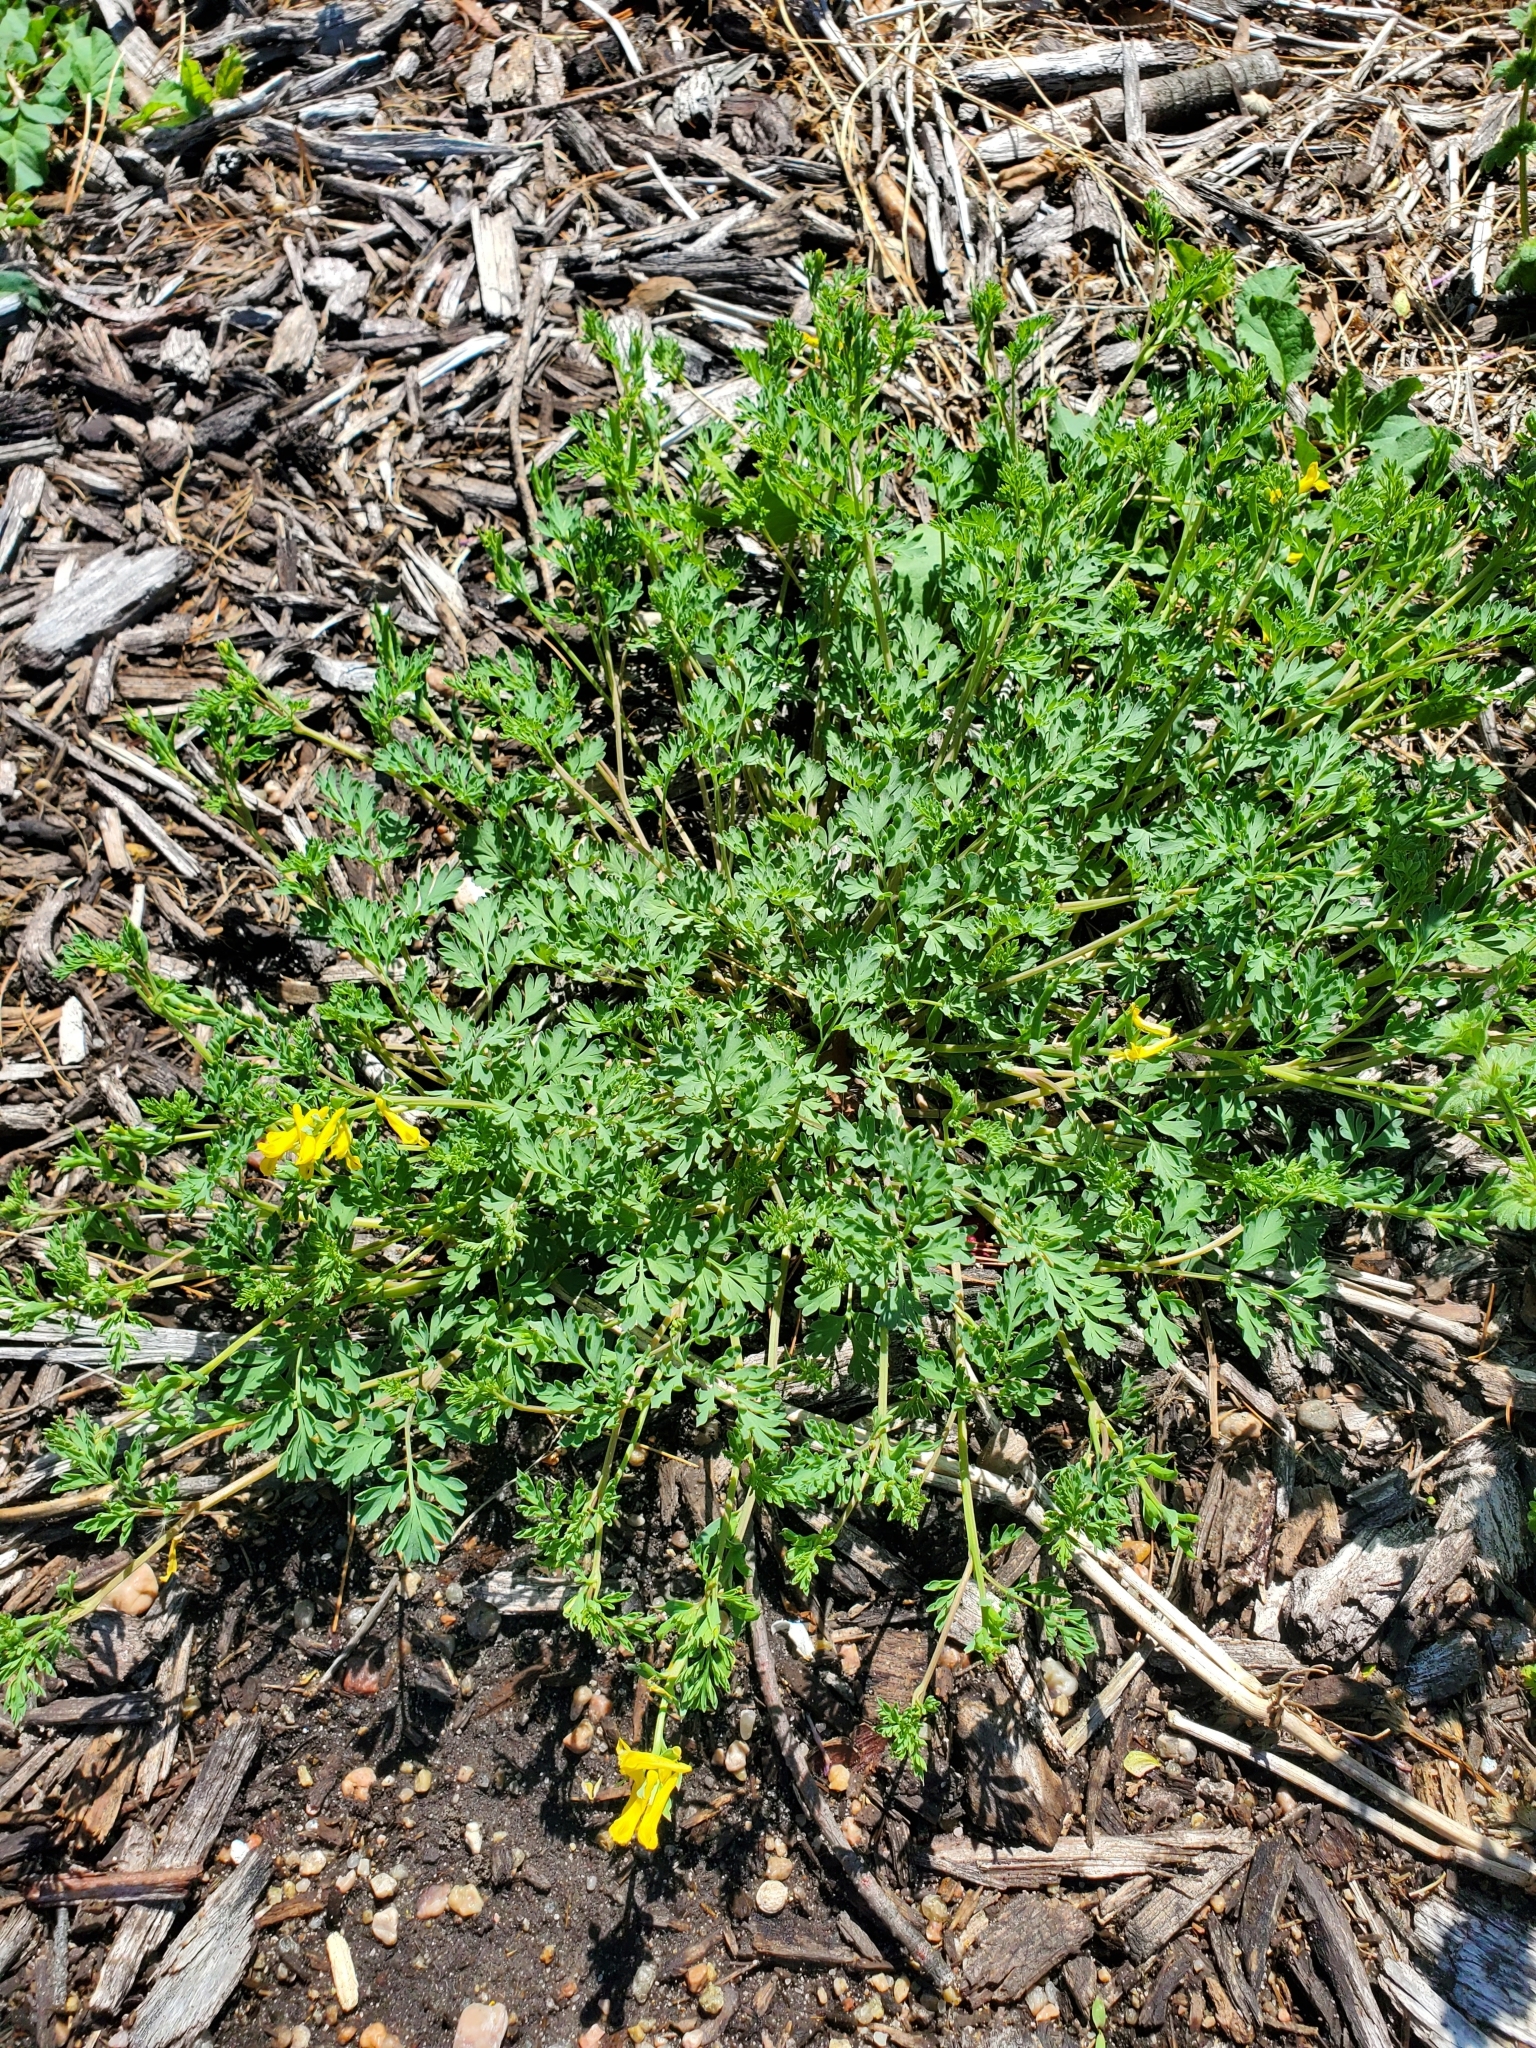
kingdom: Plantae
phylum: Tracheophyta
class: Magnoliopsida
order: Ranunculales
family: Papaveraceae
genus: Corydalis
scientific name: Corydalis micrantha
